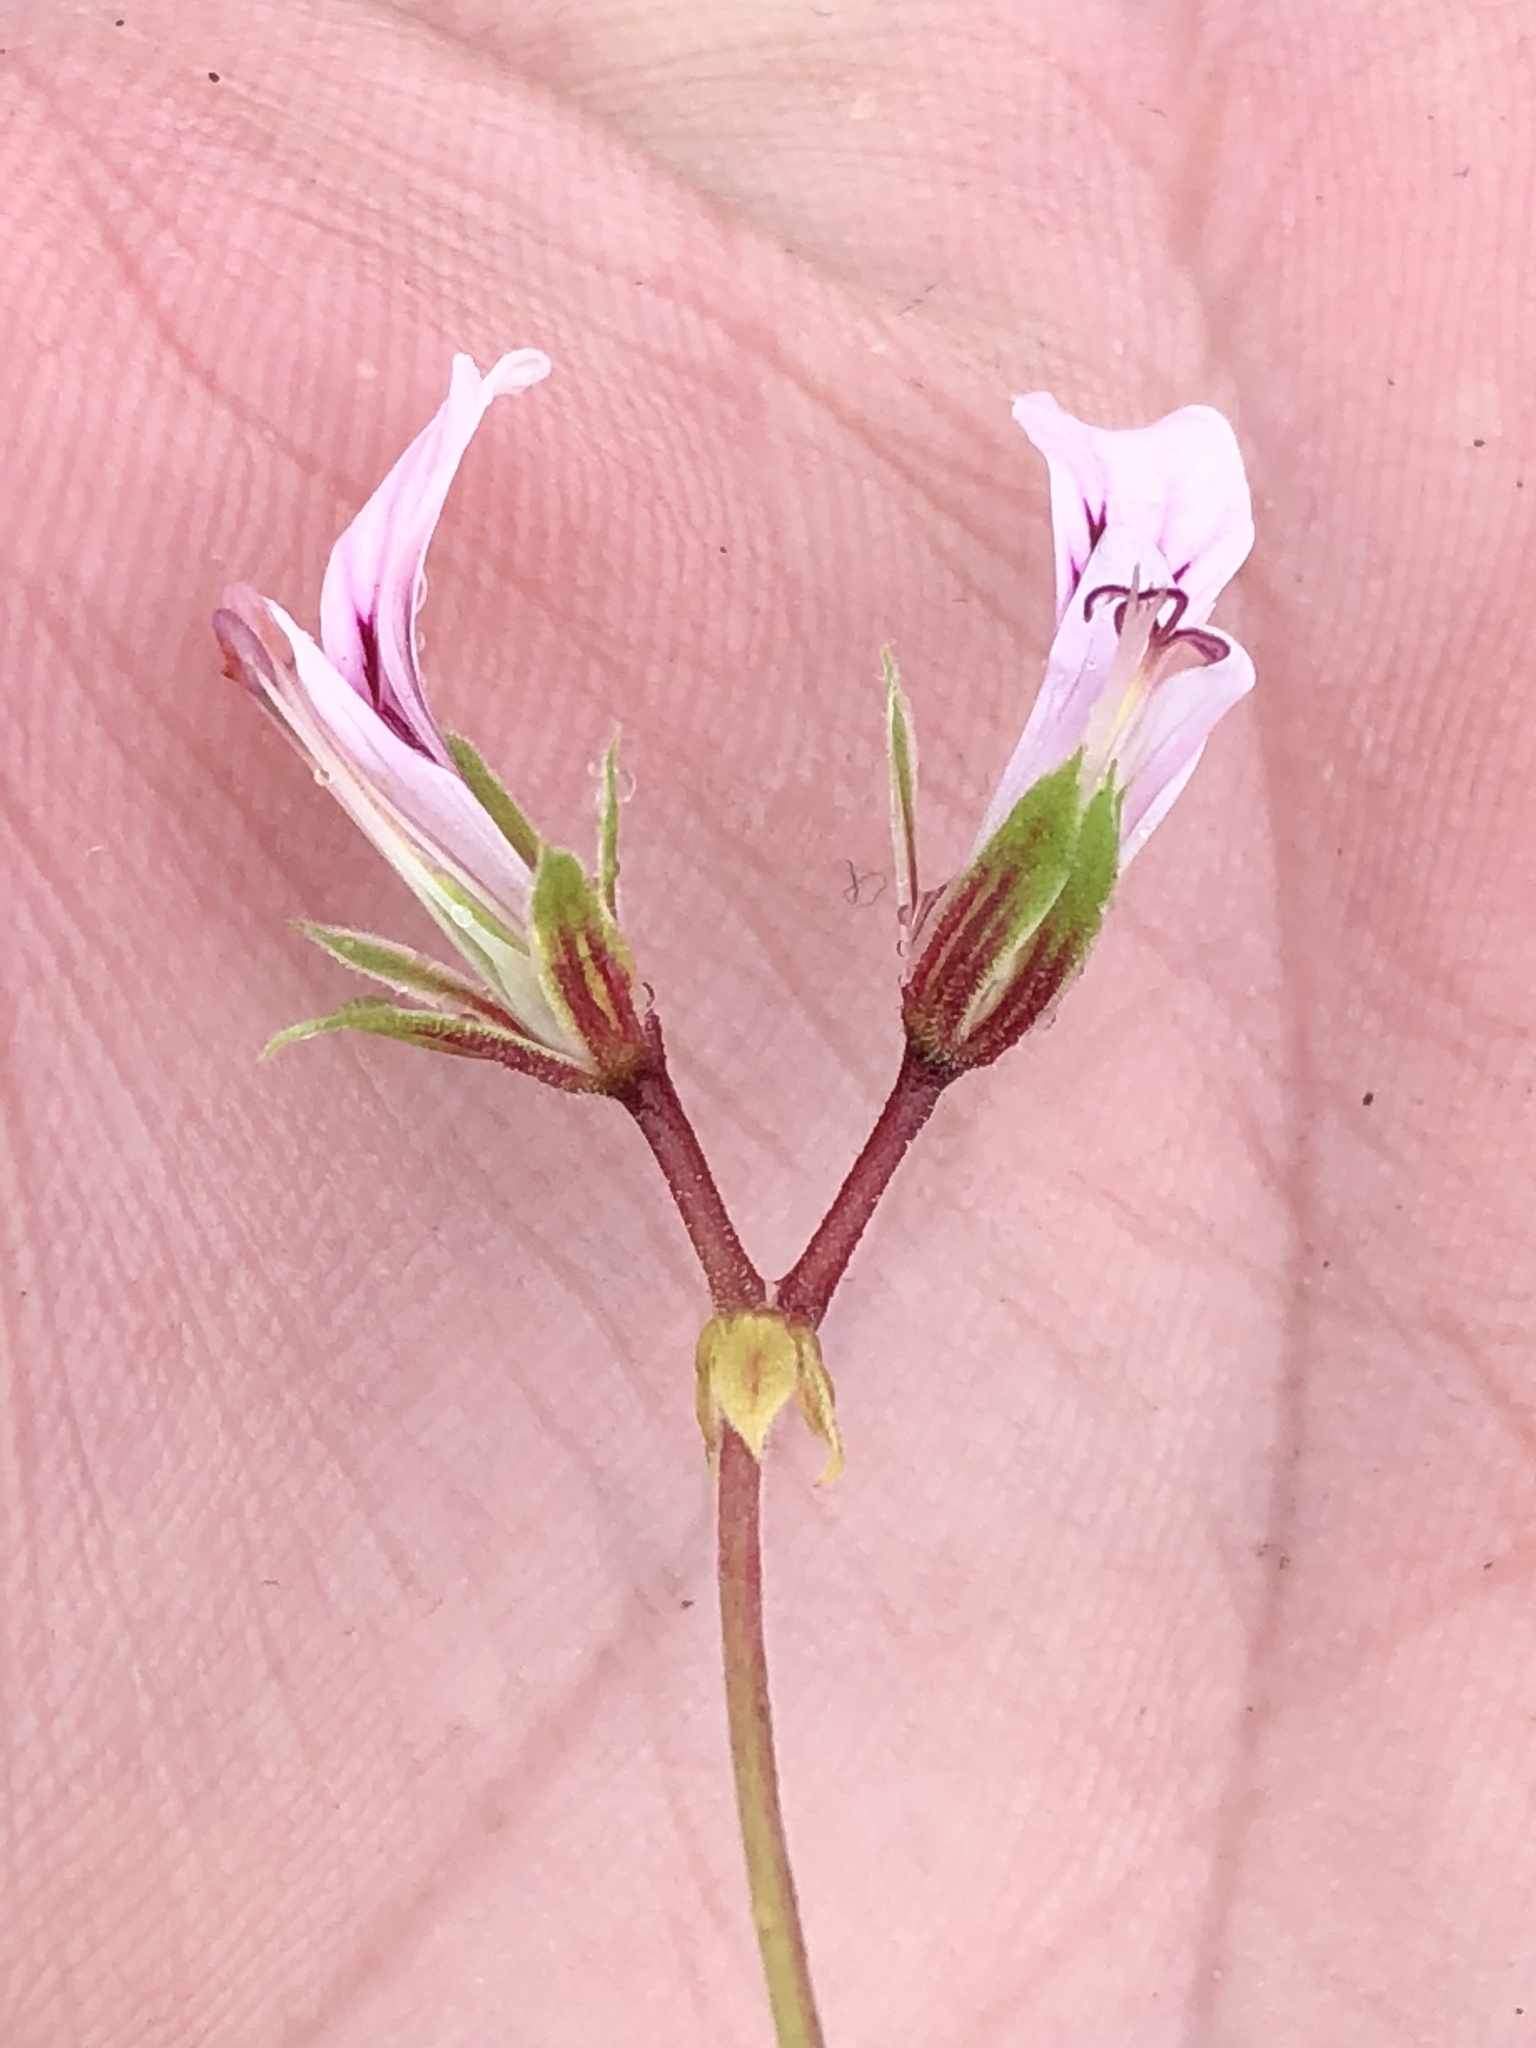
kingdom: Plantae
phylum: Tracheophyta
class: Magnoliopsida
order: Geraniales
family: Geraniaceae
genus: Pelargonium
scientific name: Pelargonium candicans
